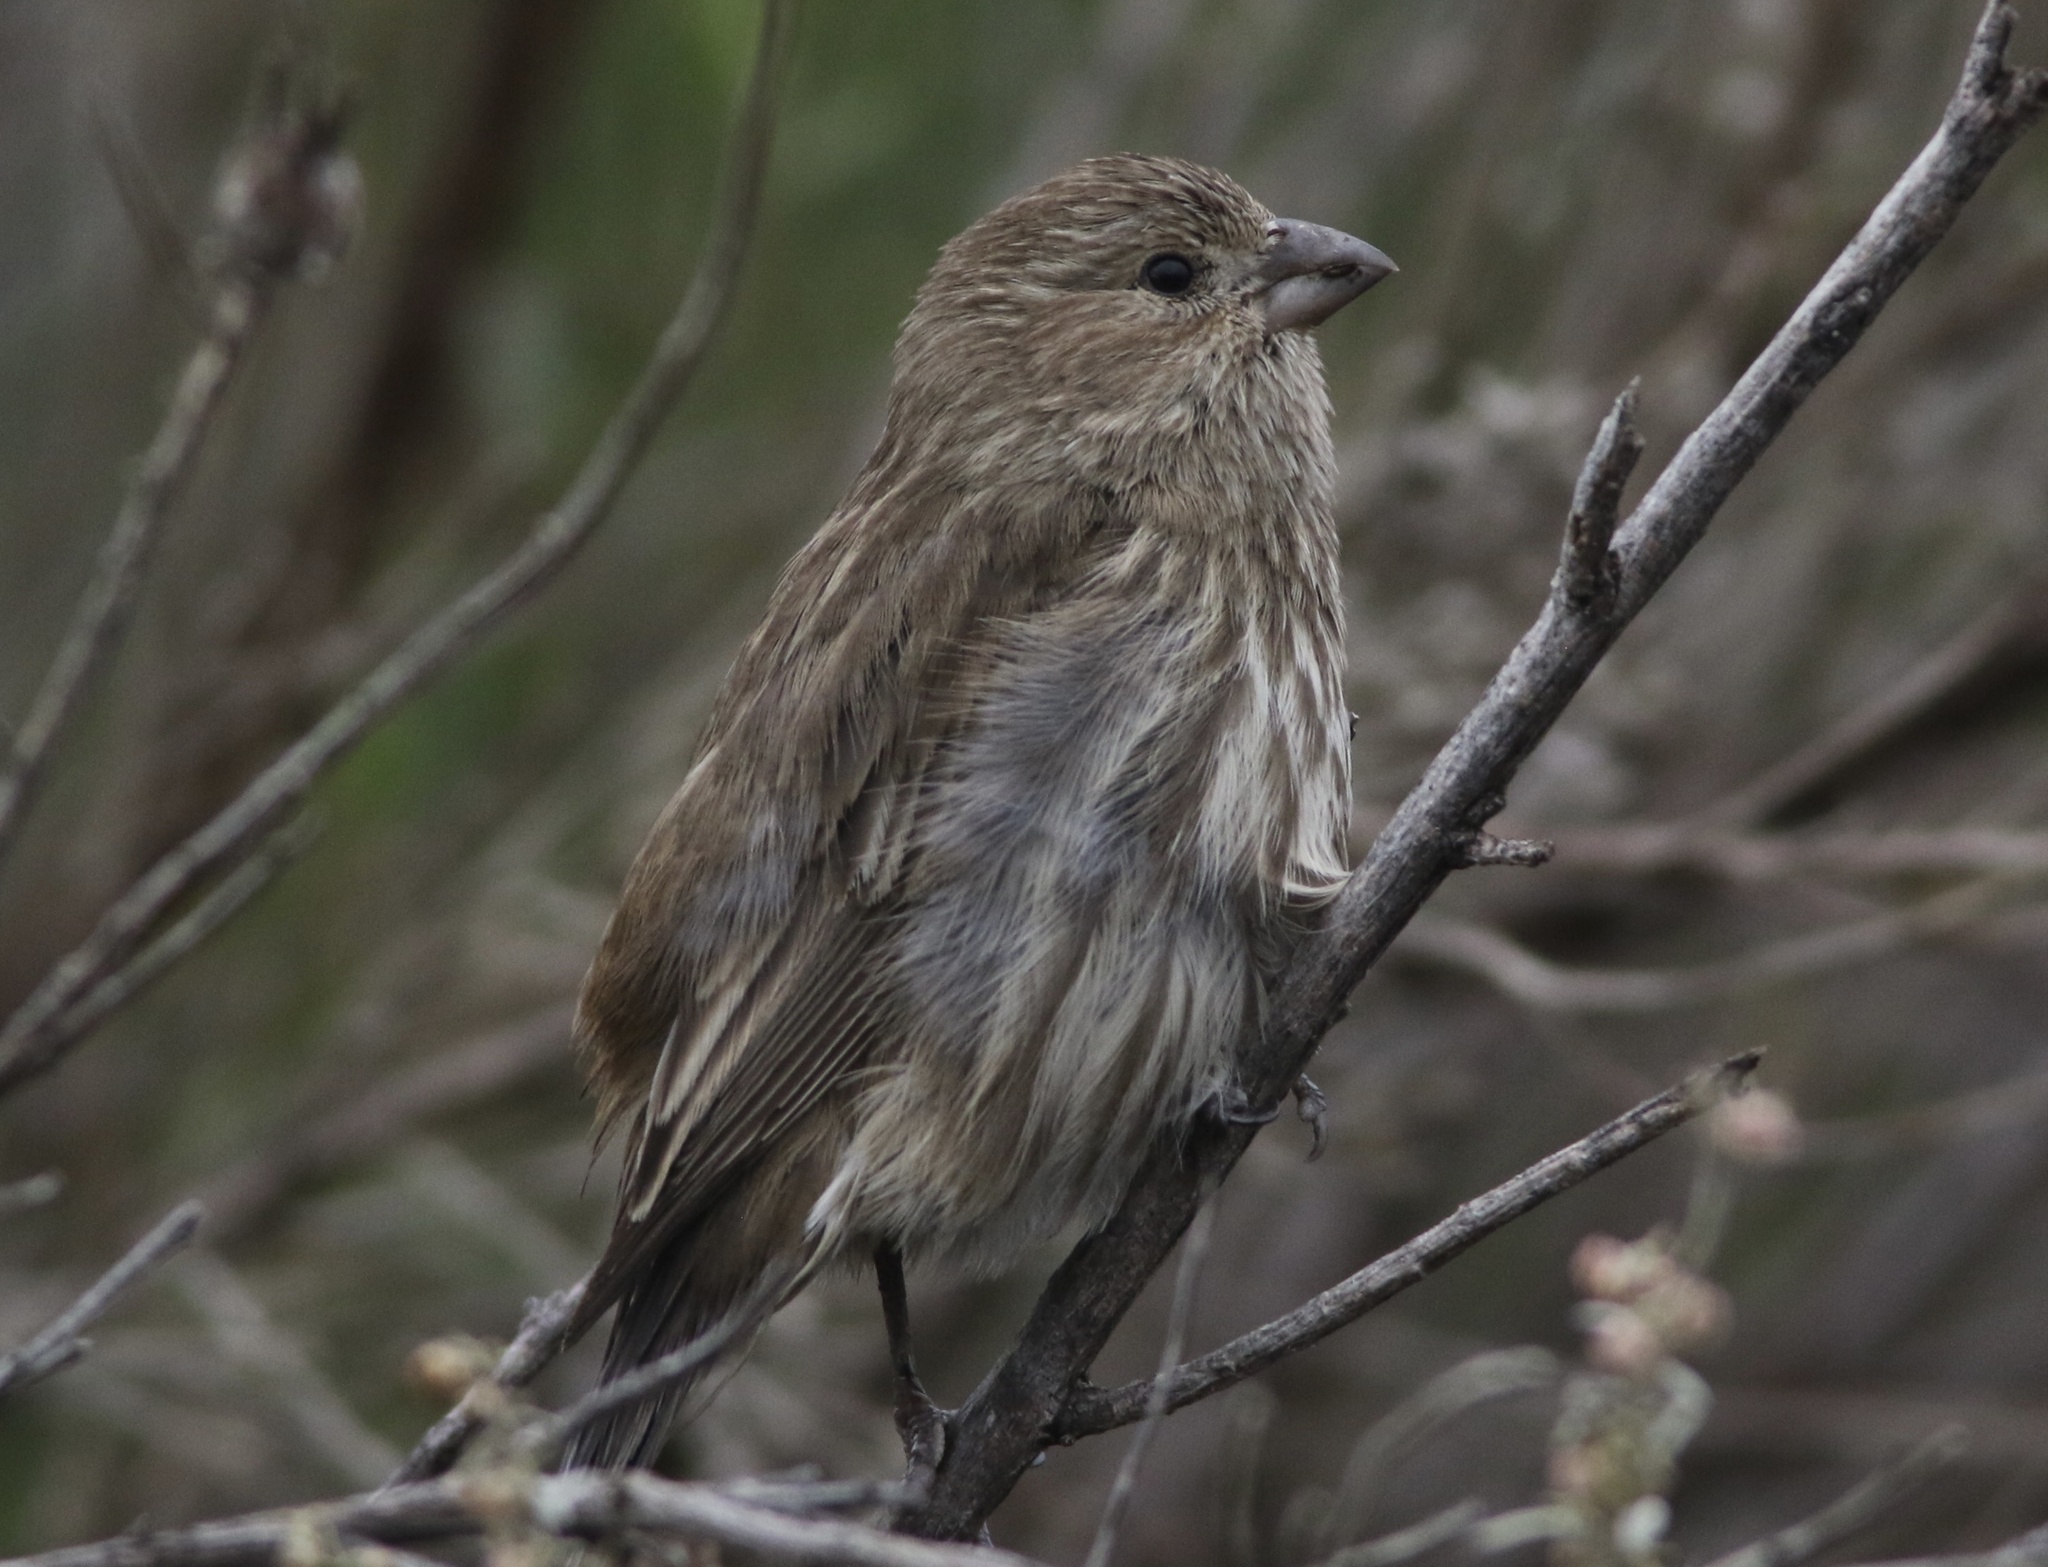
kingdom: Animalia
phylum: Chordata
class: Aves
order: Passeriformes
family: Fringillidae
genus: Haemorhous
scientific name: Haemorhous mexicanus
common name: House finch
